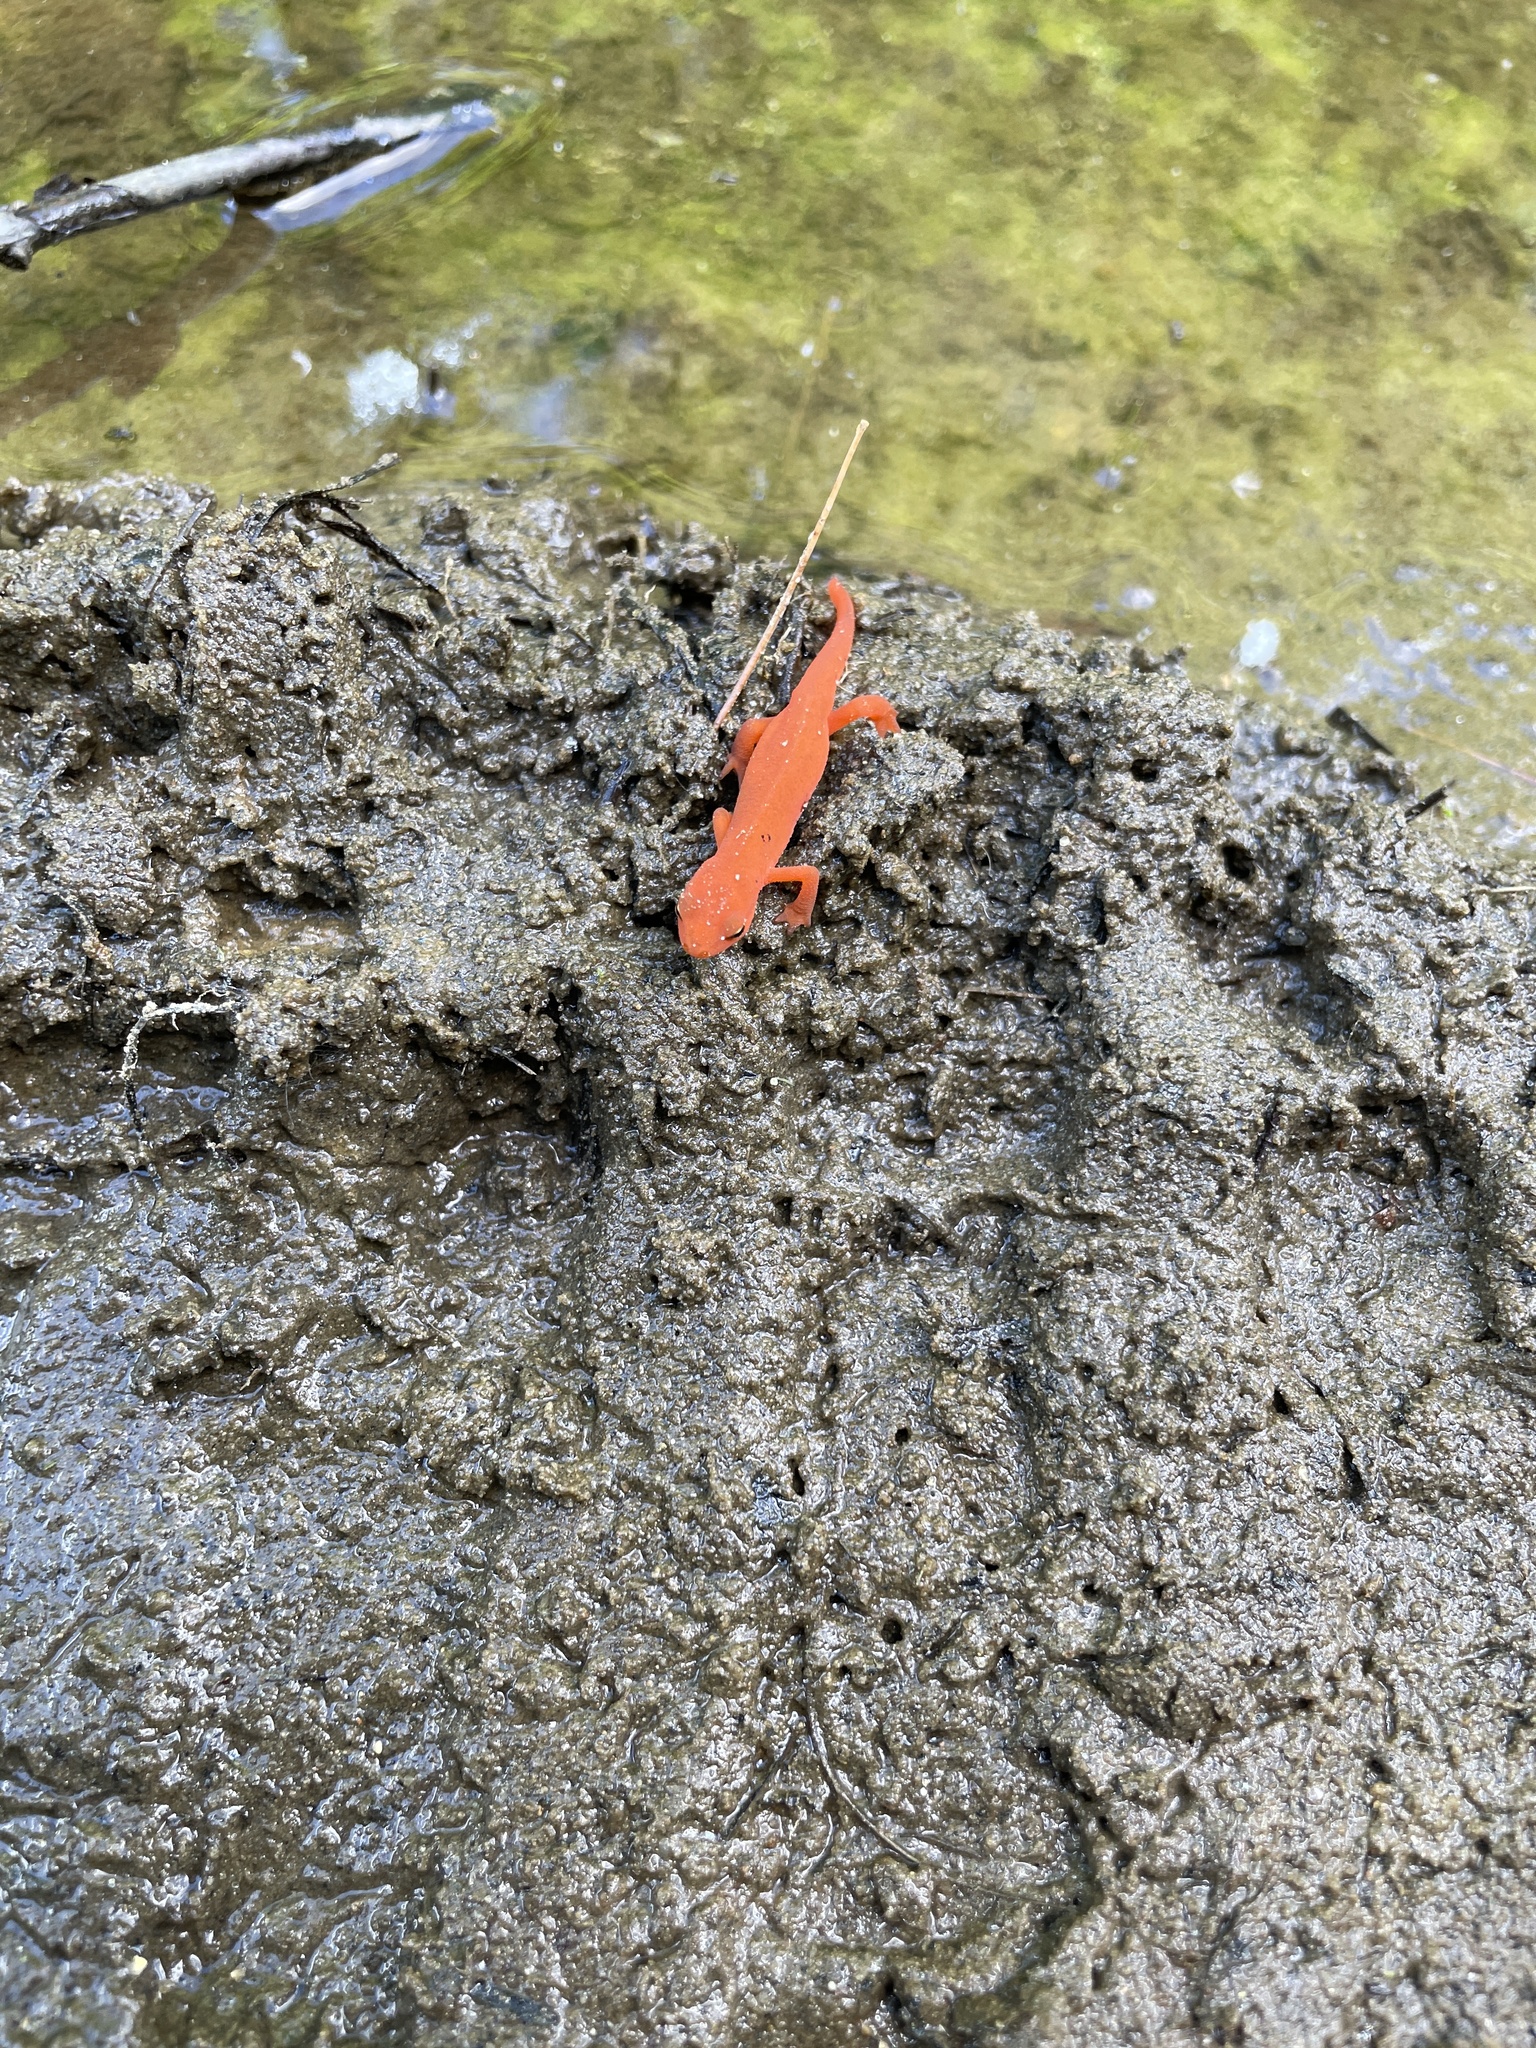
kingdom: Animalia
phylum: Chordata
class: Amphibia
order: Caudata
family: Salamandridae
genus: Notophthalmus
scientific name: Notophthalmus viridescens
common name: Eastern newt
